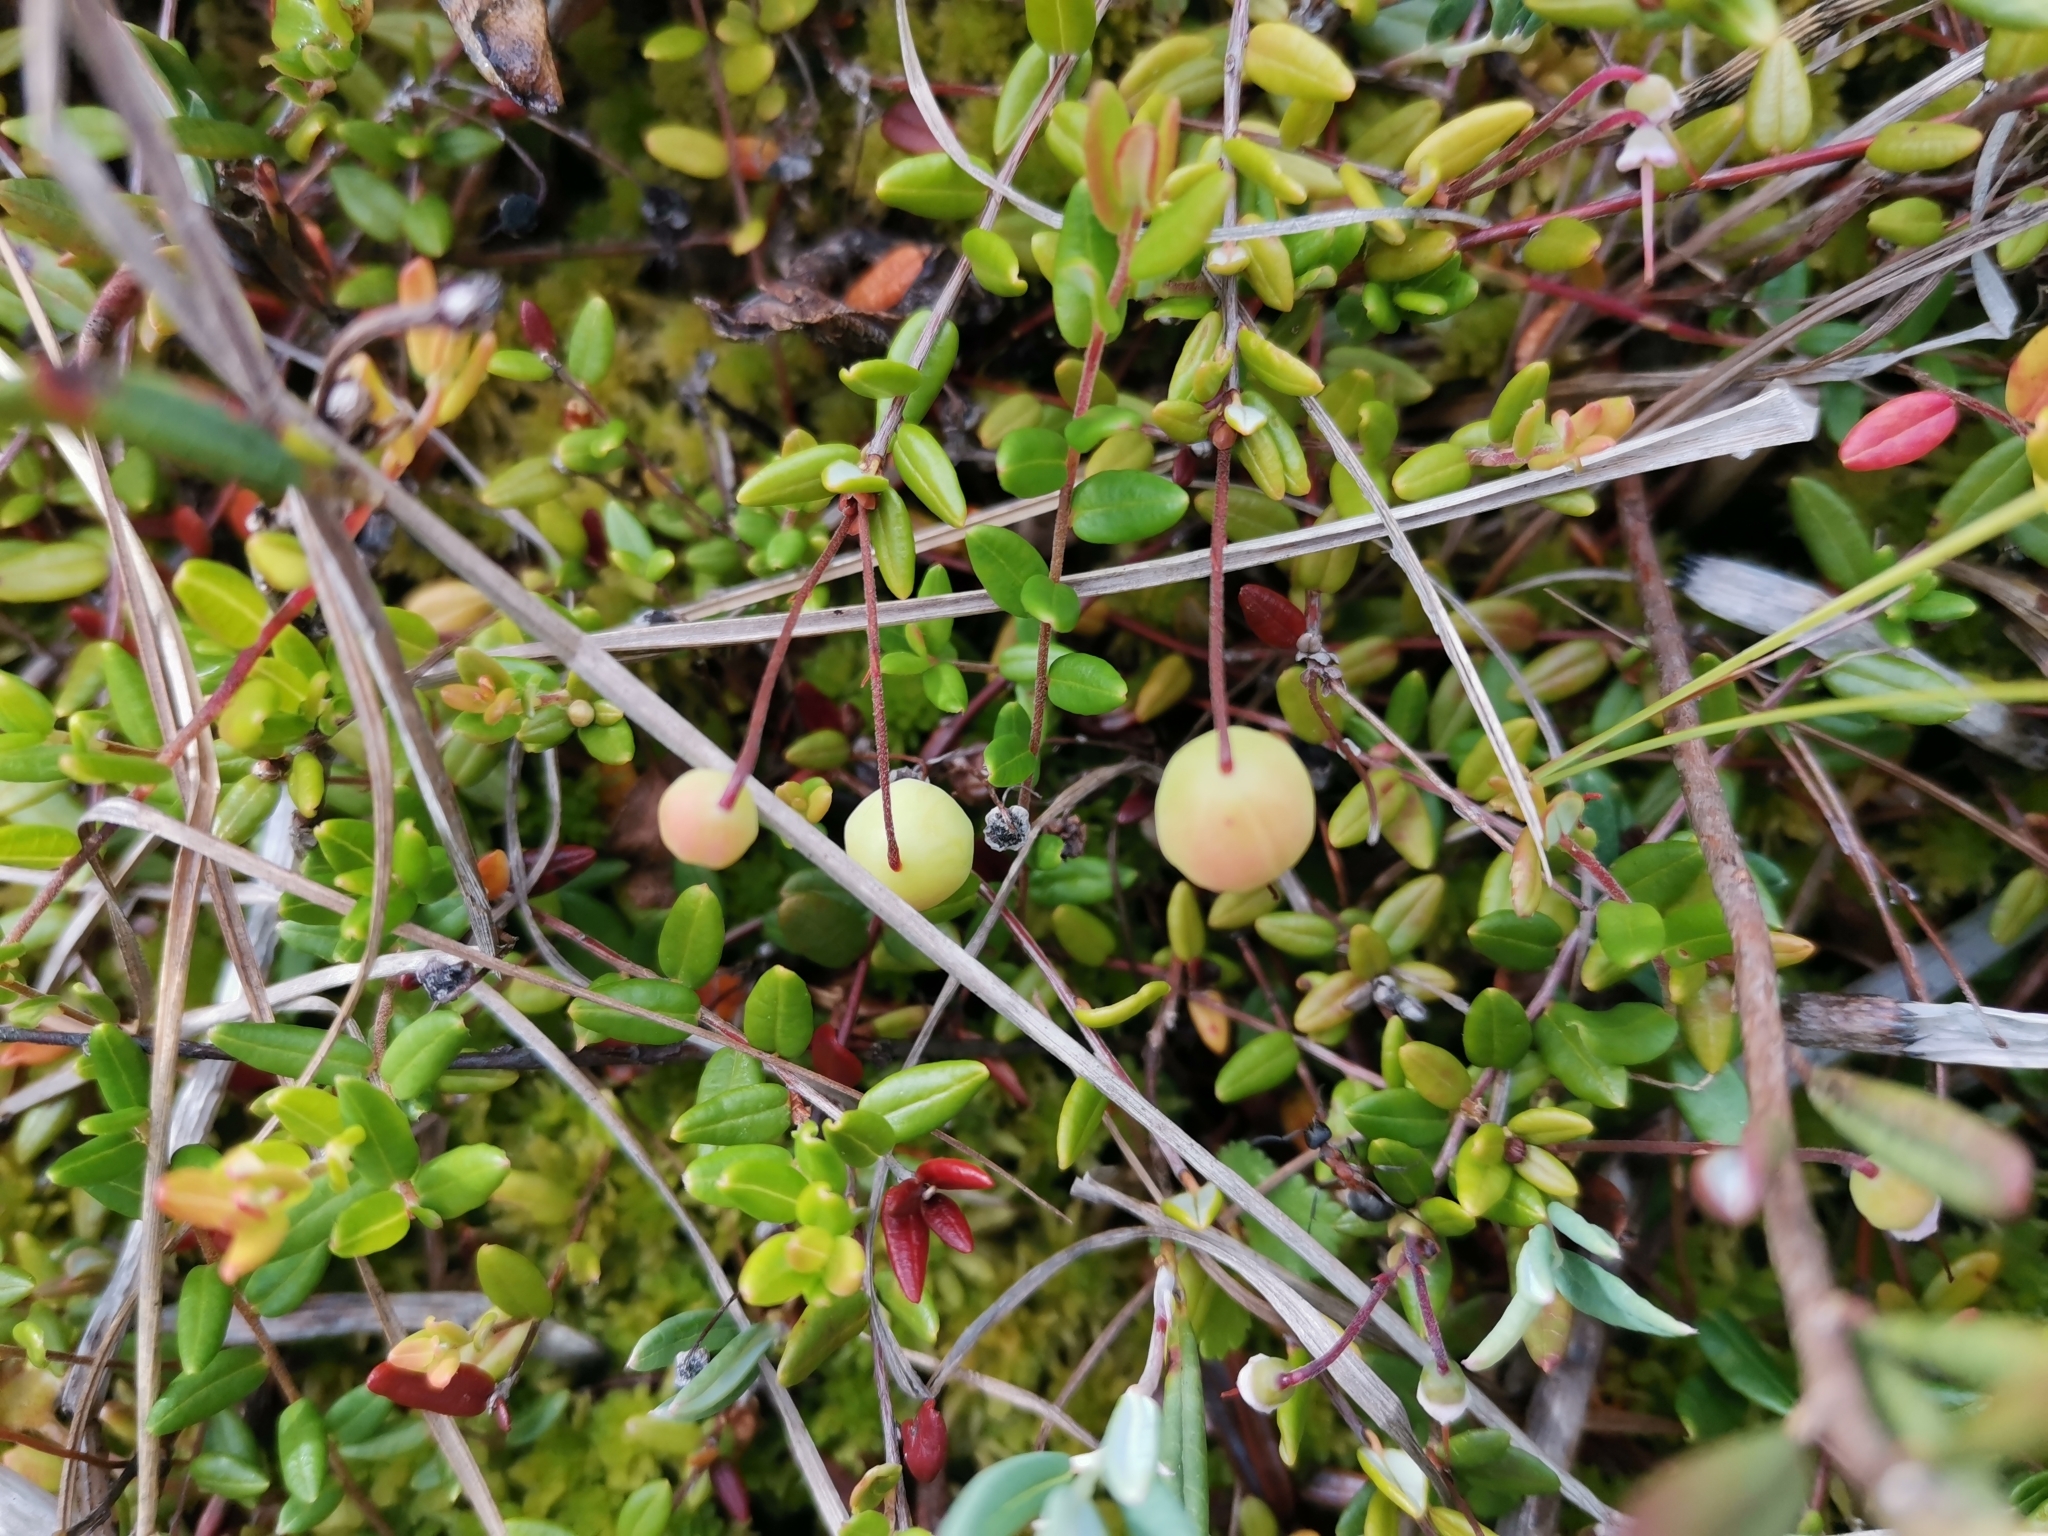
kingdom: Plantae
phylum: Tracheophyta
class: Magnoliopsida
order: Ericales
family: Ericaceae
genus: Vaccinium
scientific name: Vaccinium oxycoccos
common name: Cranberry
